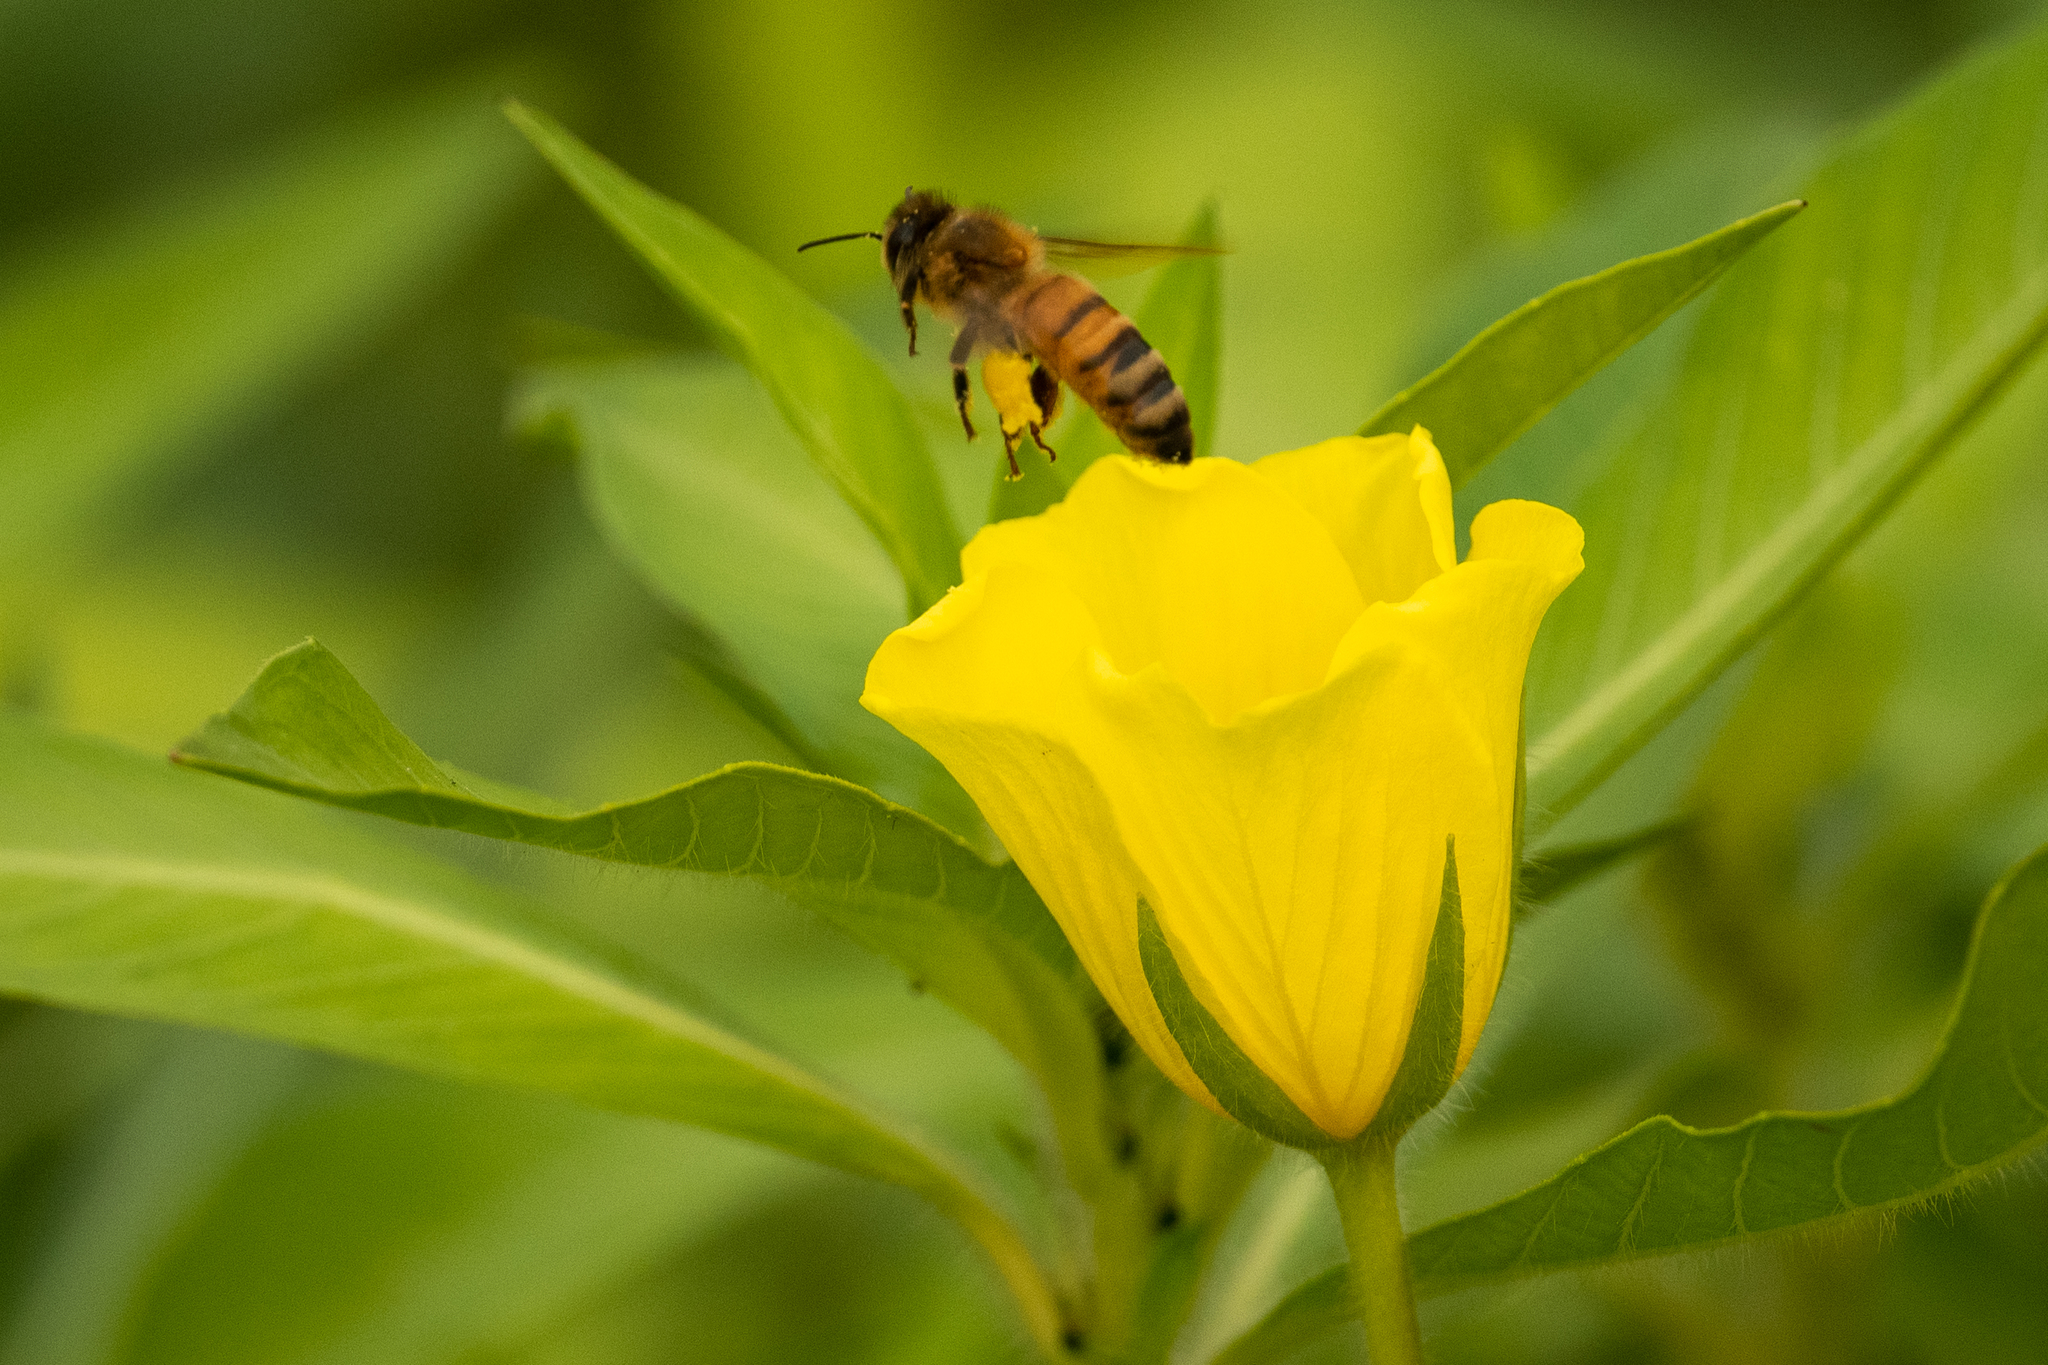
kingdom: Animalia
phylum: Arthropoda
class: Insecta
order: Hymenoptera
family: Apidae
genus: Apis
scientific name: Apis mellifera
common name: Honey bee
